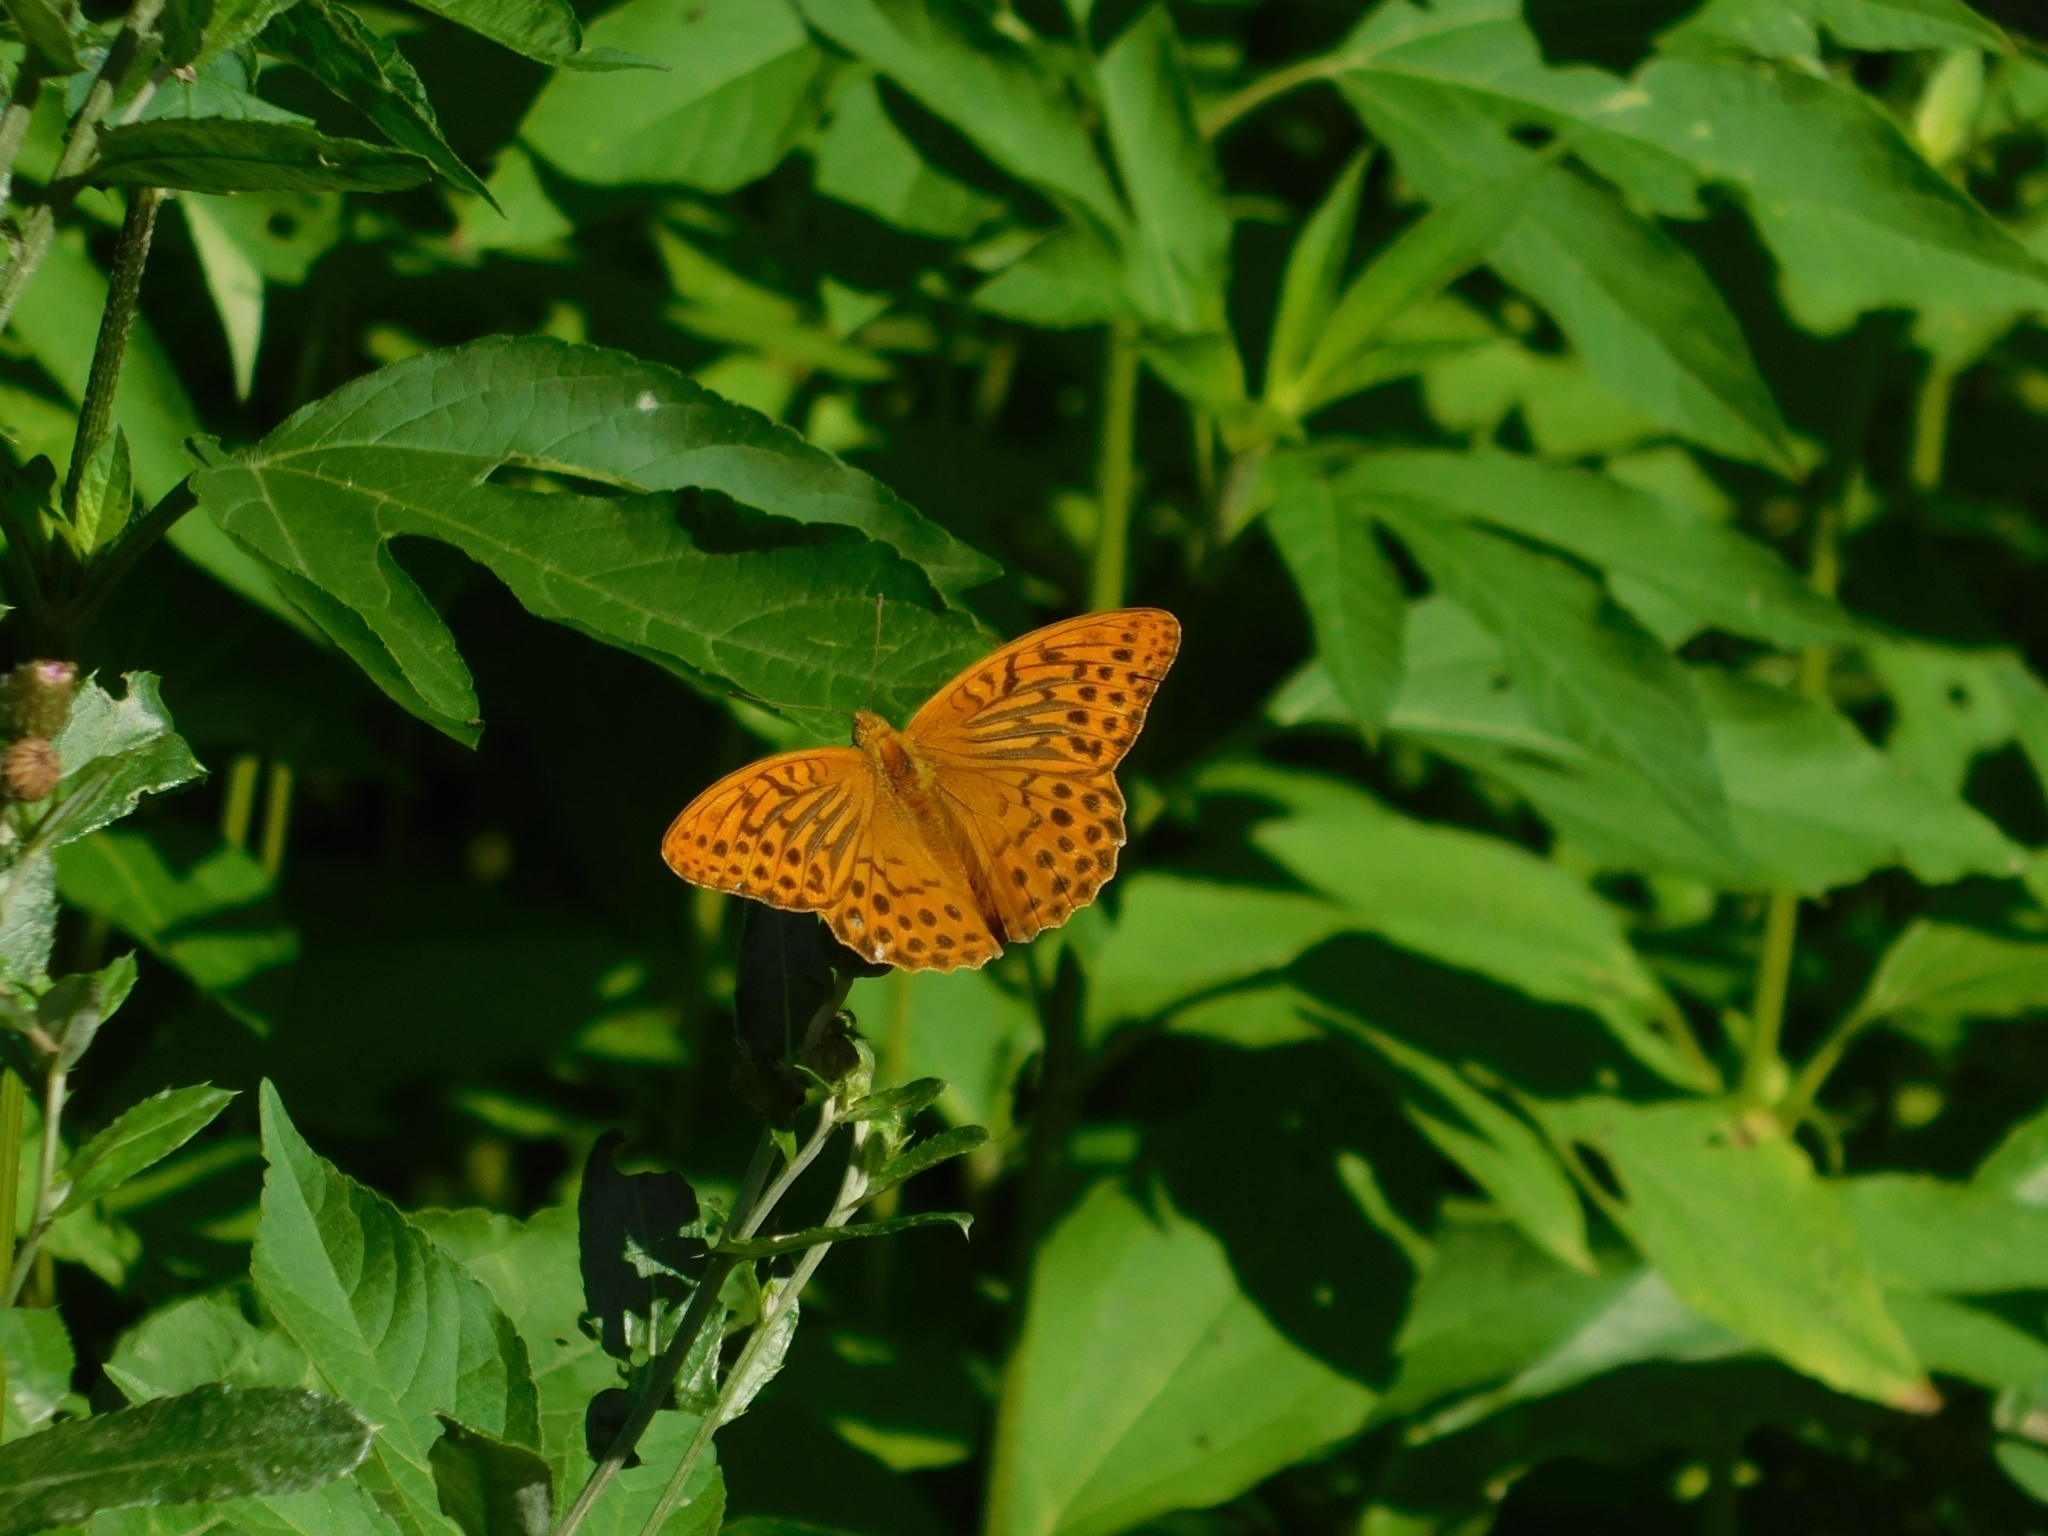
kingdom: Animalia
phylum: Arthropoda
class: Insecta
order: Lepidoptera
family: Nymphalidae
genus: Argynnis
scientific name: Argynnis paphia
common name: Silver-washed fritillary
